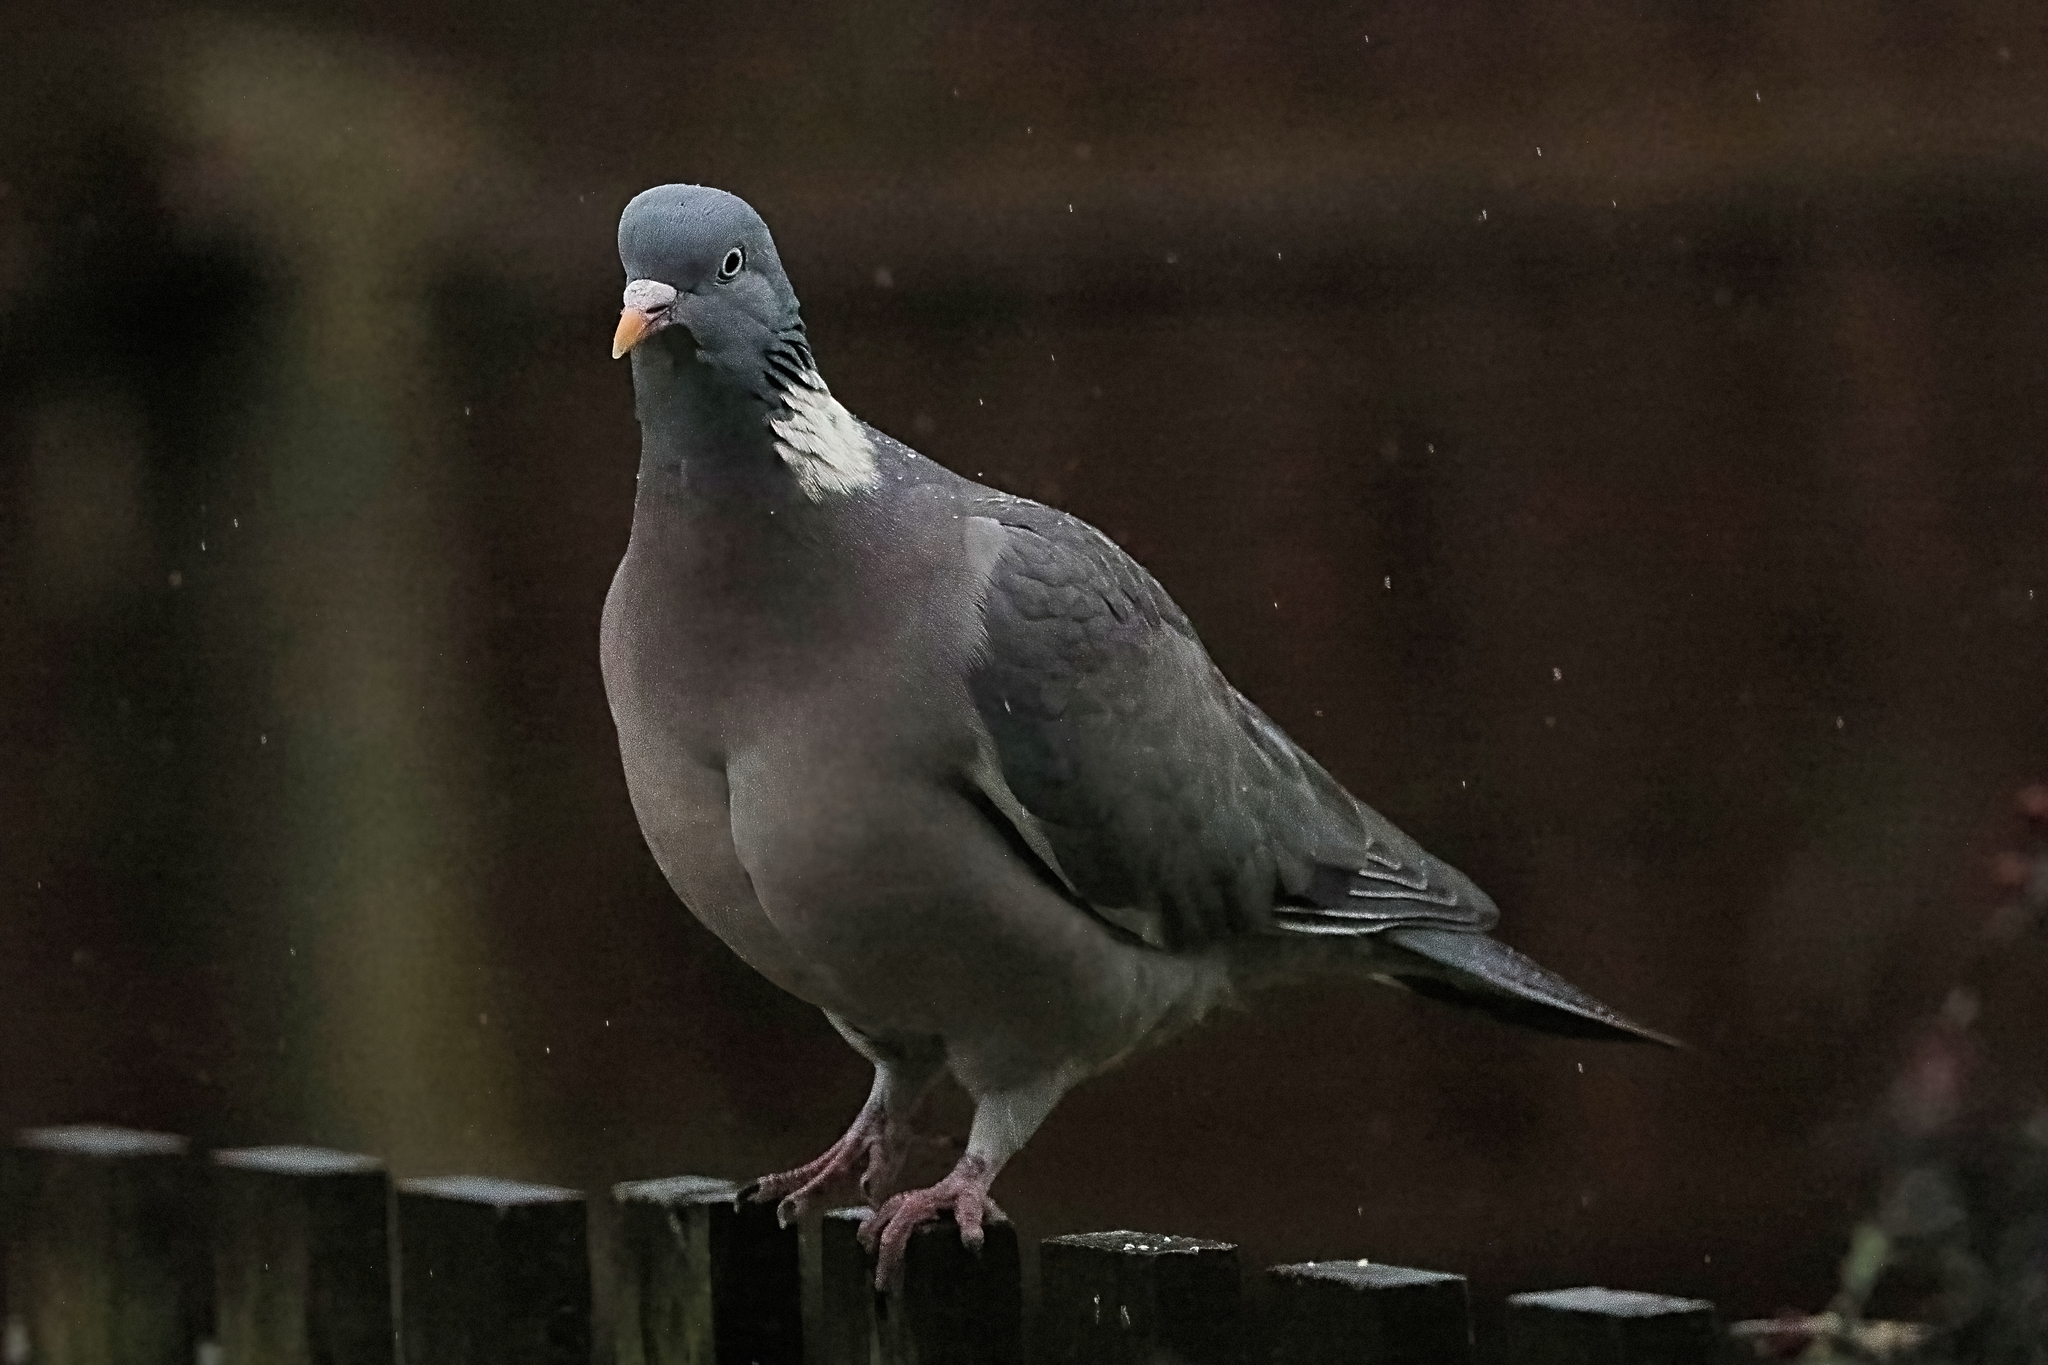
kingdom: Animalia
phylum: Chordata
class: Aves
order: Columbiformes
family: Columbidae
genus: Columba
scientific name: Columba palumbus
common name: Common wood pigeon
